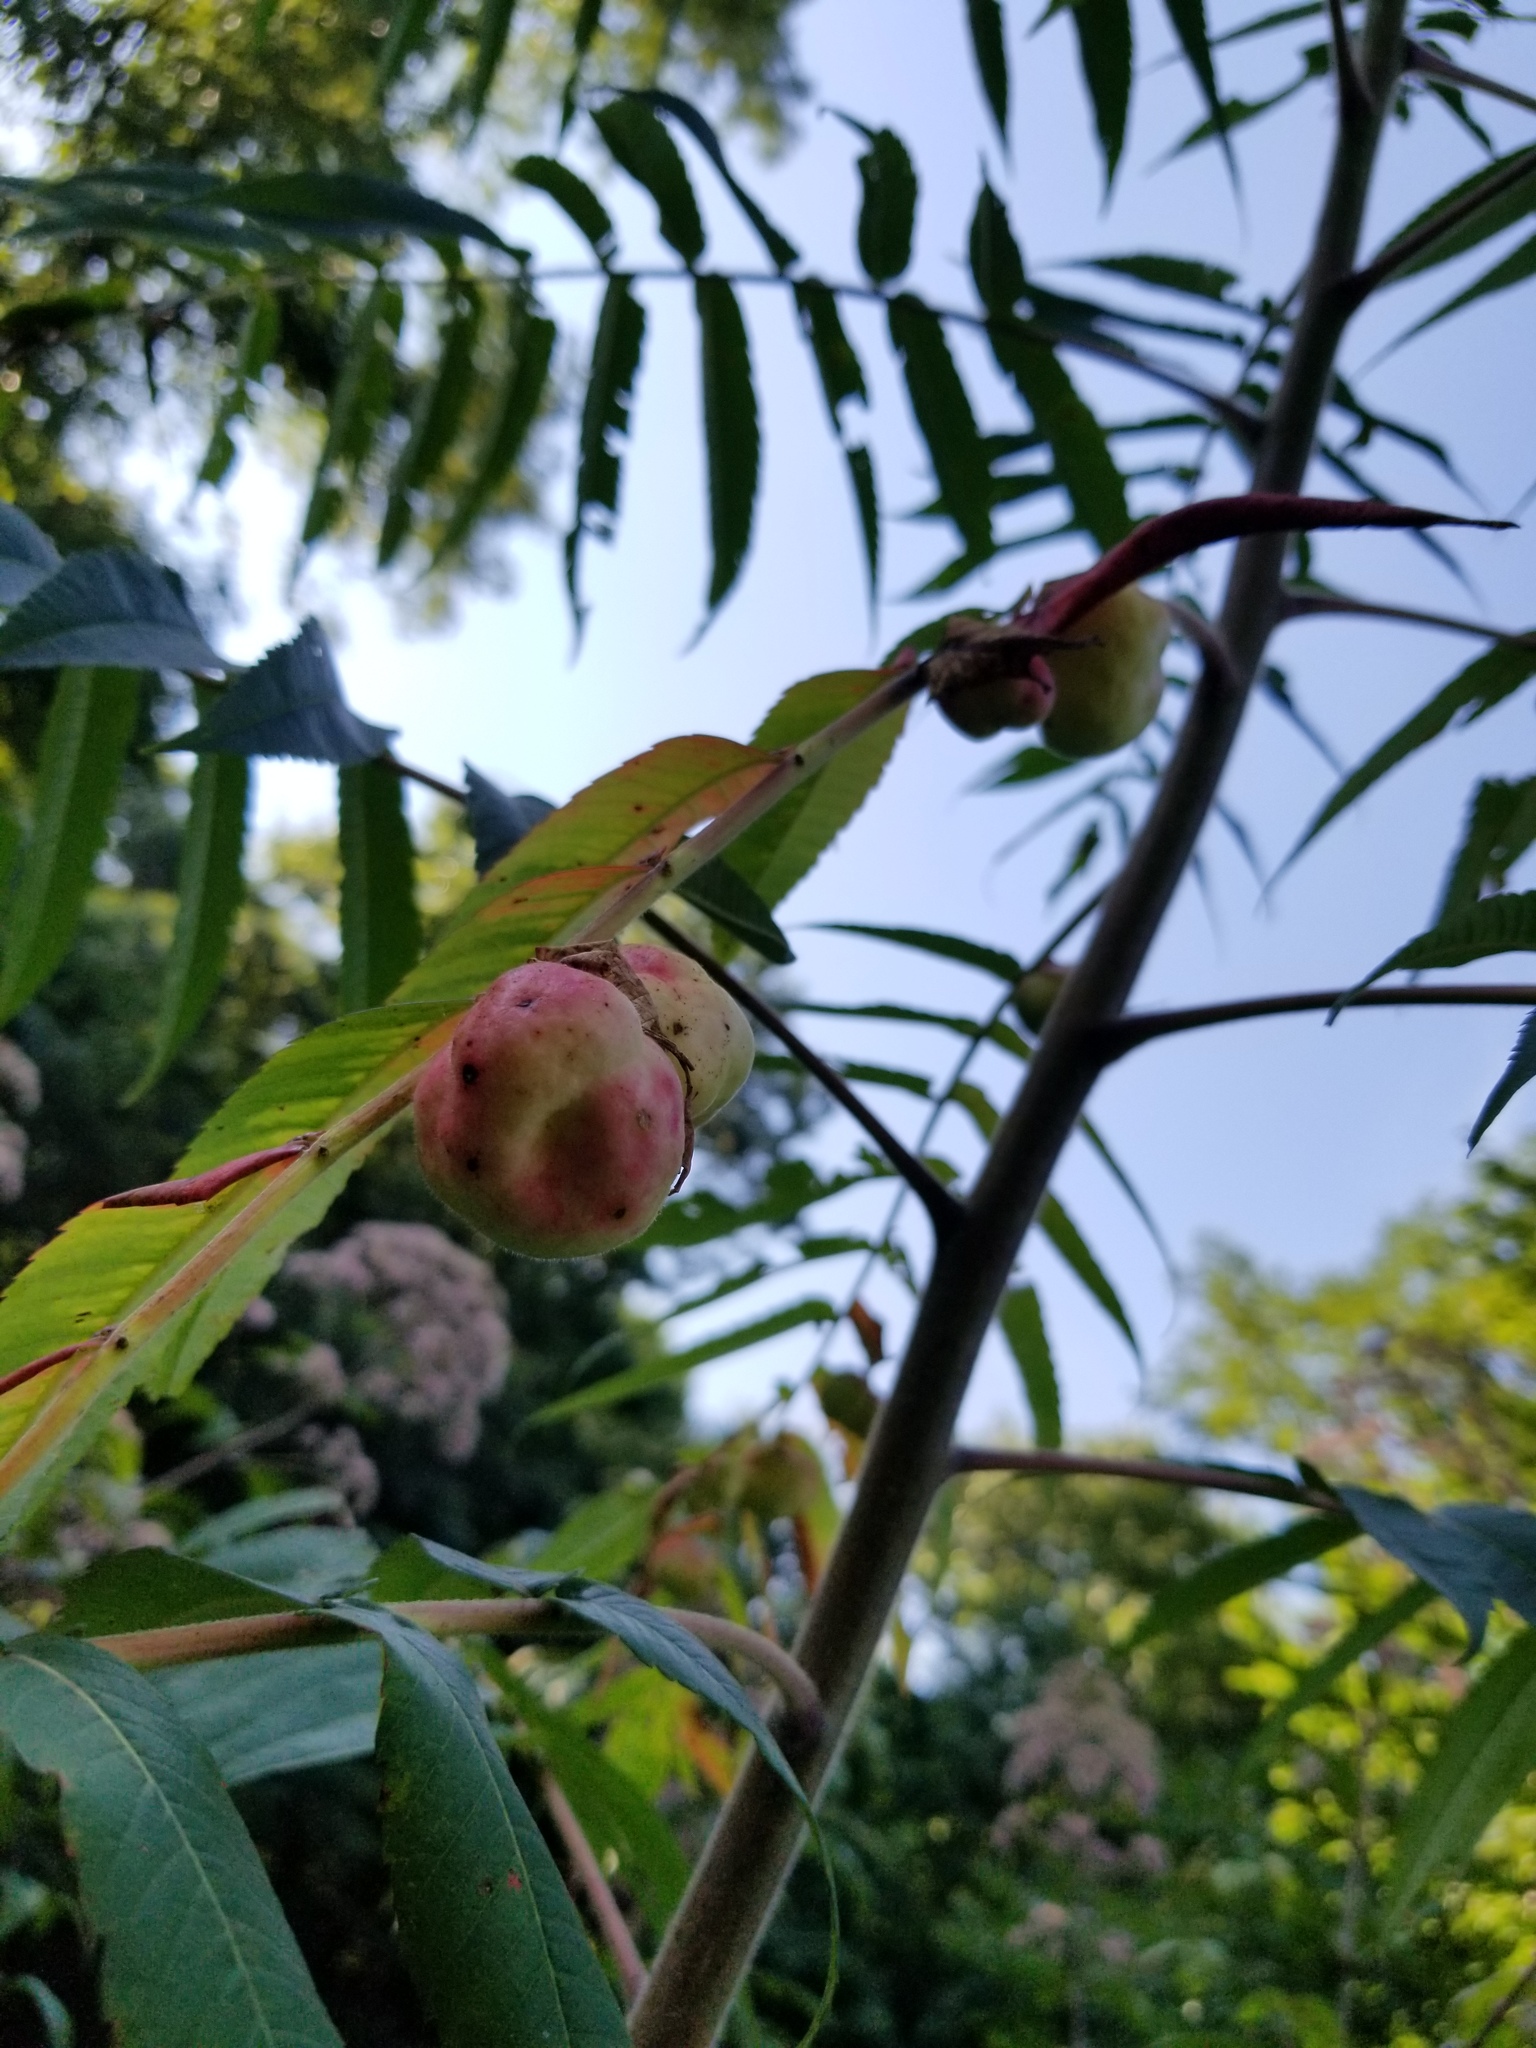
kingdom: Plantae
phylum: Tracheophyta
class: Magnoliopsida
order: Sapindales
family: Anacardiaceae
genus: Rhus
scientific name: Rhus typhina
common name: Staghorn sumac
